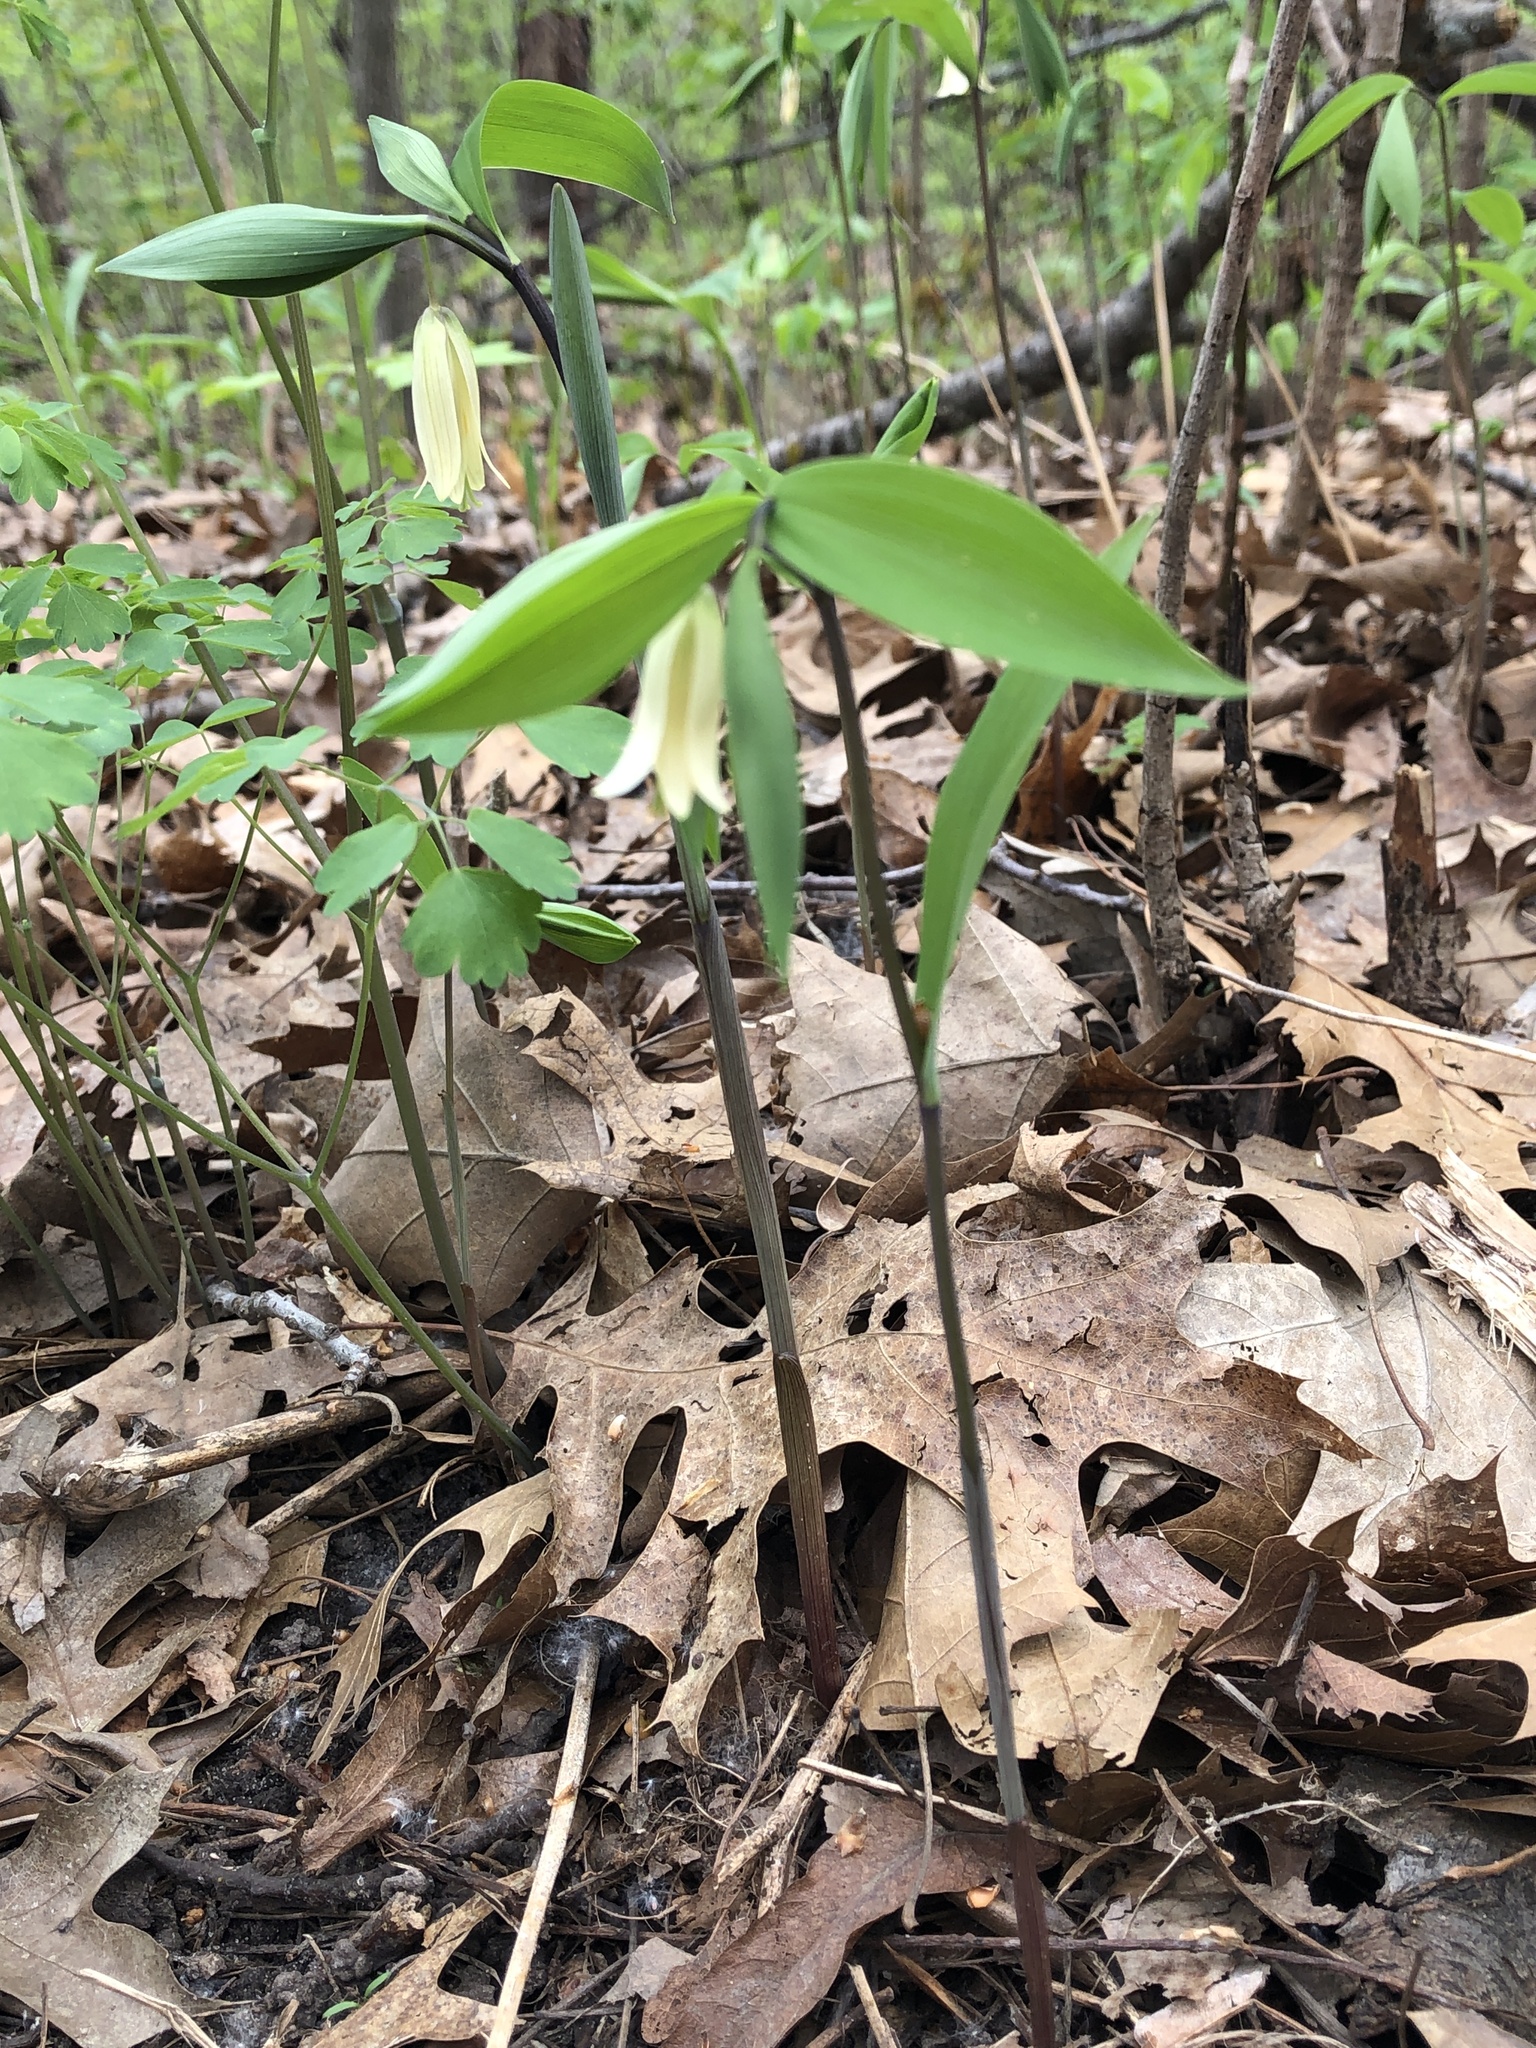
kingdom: Plantae
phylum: Tracheophyta
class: Liliopsida
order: Liliales
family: Colchicaceae
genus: Uvularia
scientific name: Uvularia sessilifolia
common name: Straw-lily
